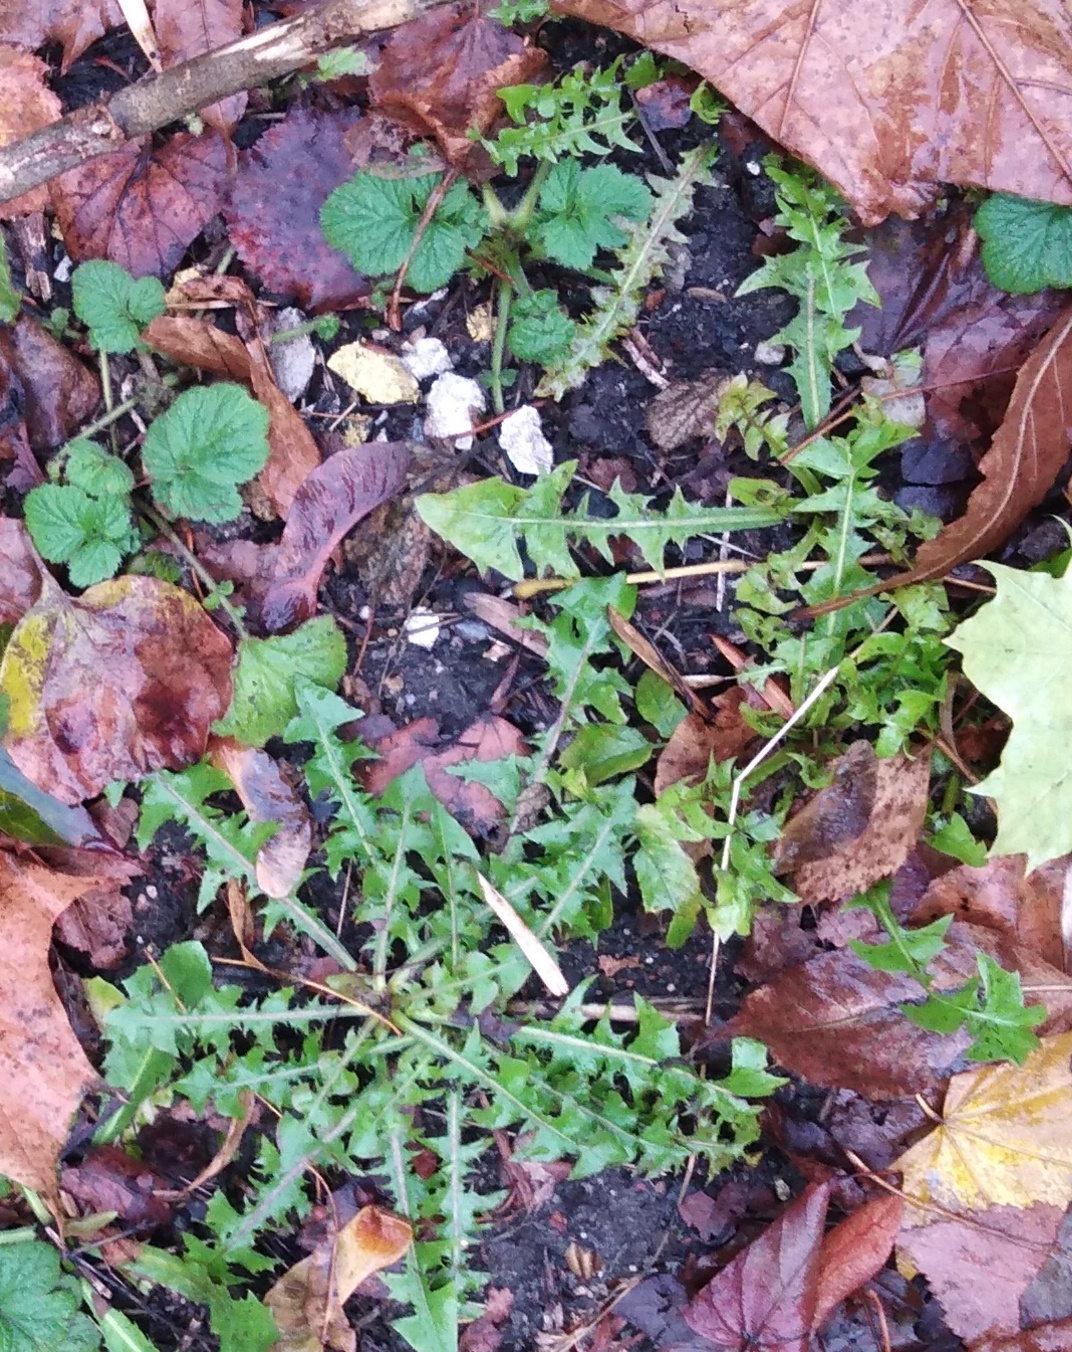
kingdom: Plantae
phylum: Tracheophyta
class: Magnoliopsida
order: Asterales
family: Asteraceae
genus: Taraxacum
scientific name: Taraxacum officinale
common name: Common dandelion
